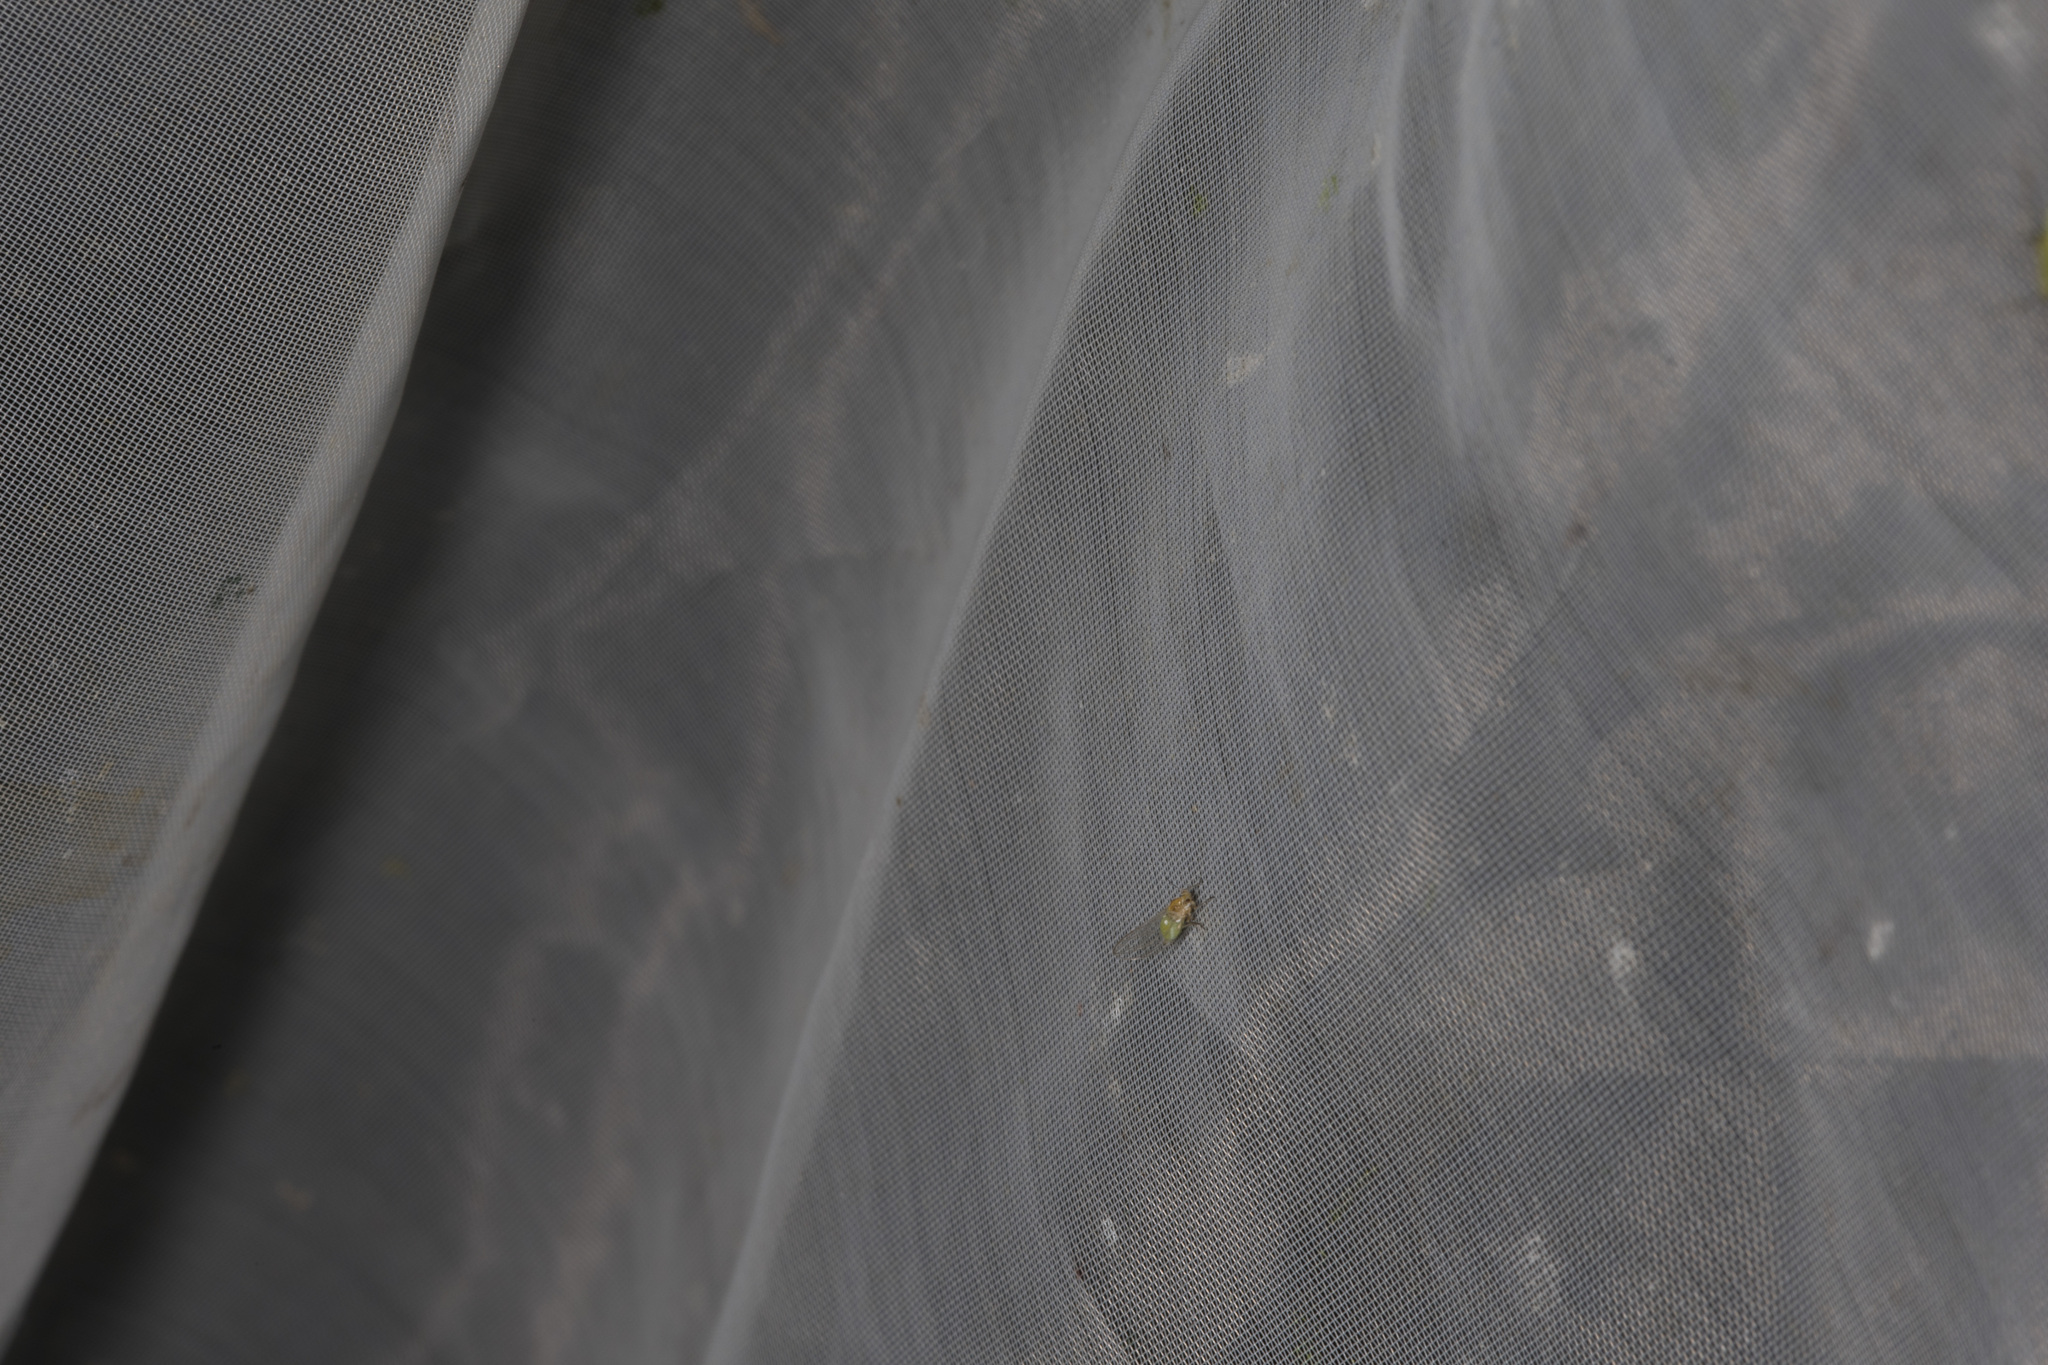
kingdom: Animalia
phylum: Arthropoda
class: Insecta
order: Hemiptera
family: Triozidae
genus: Trioza
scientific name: Trioza urticae
